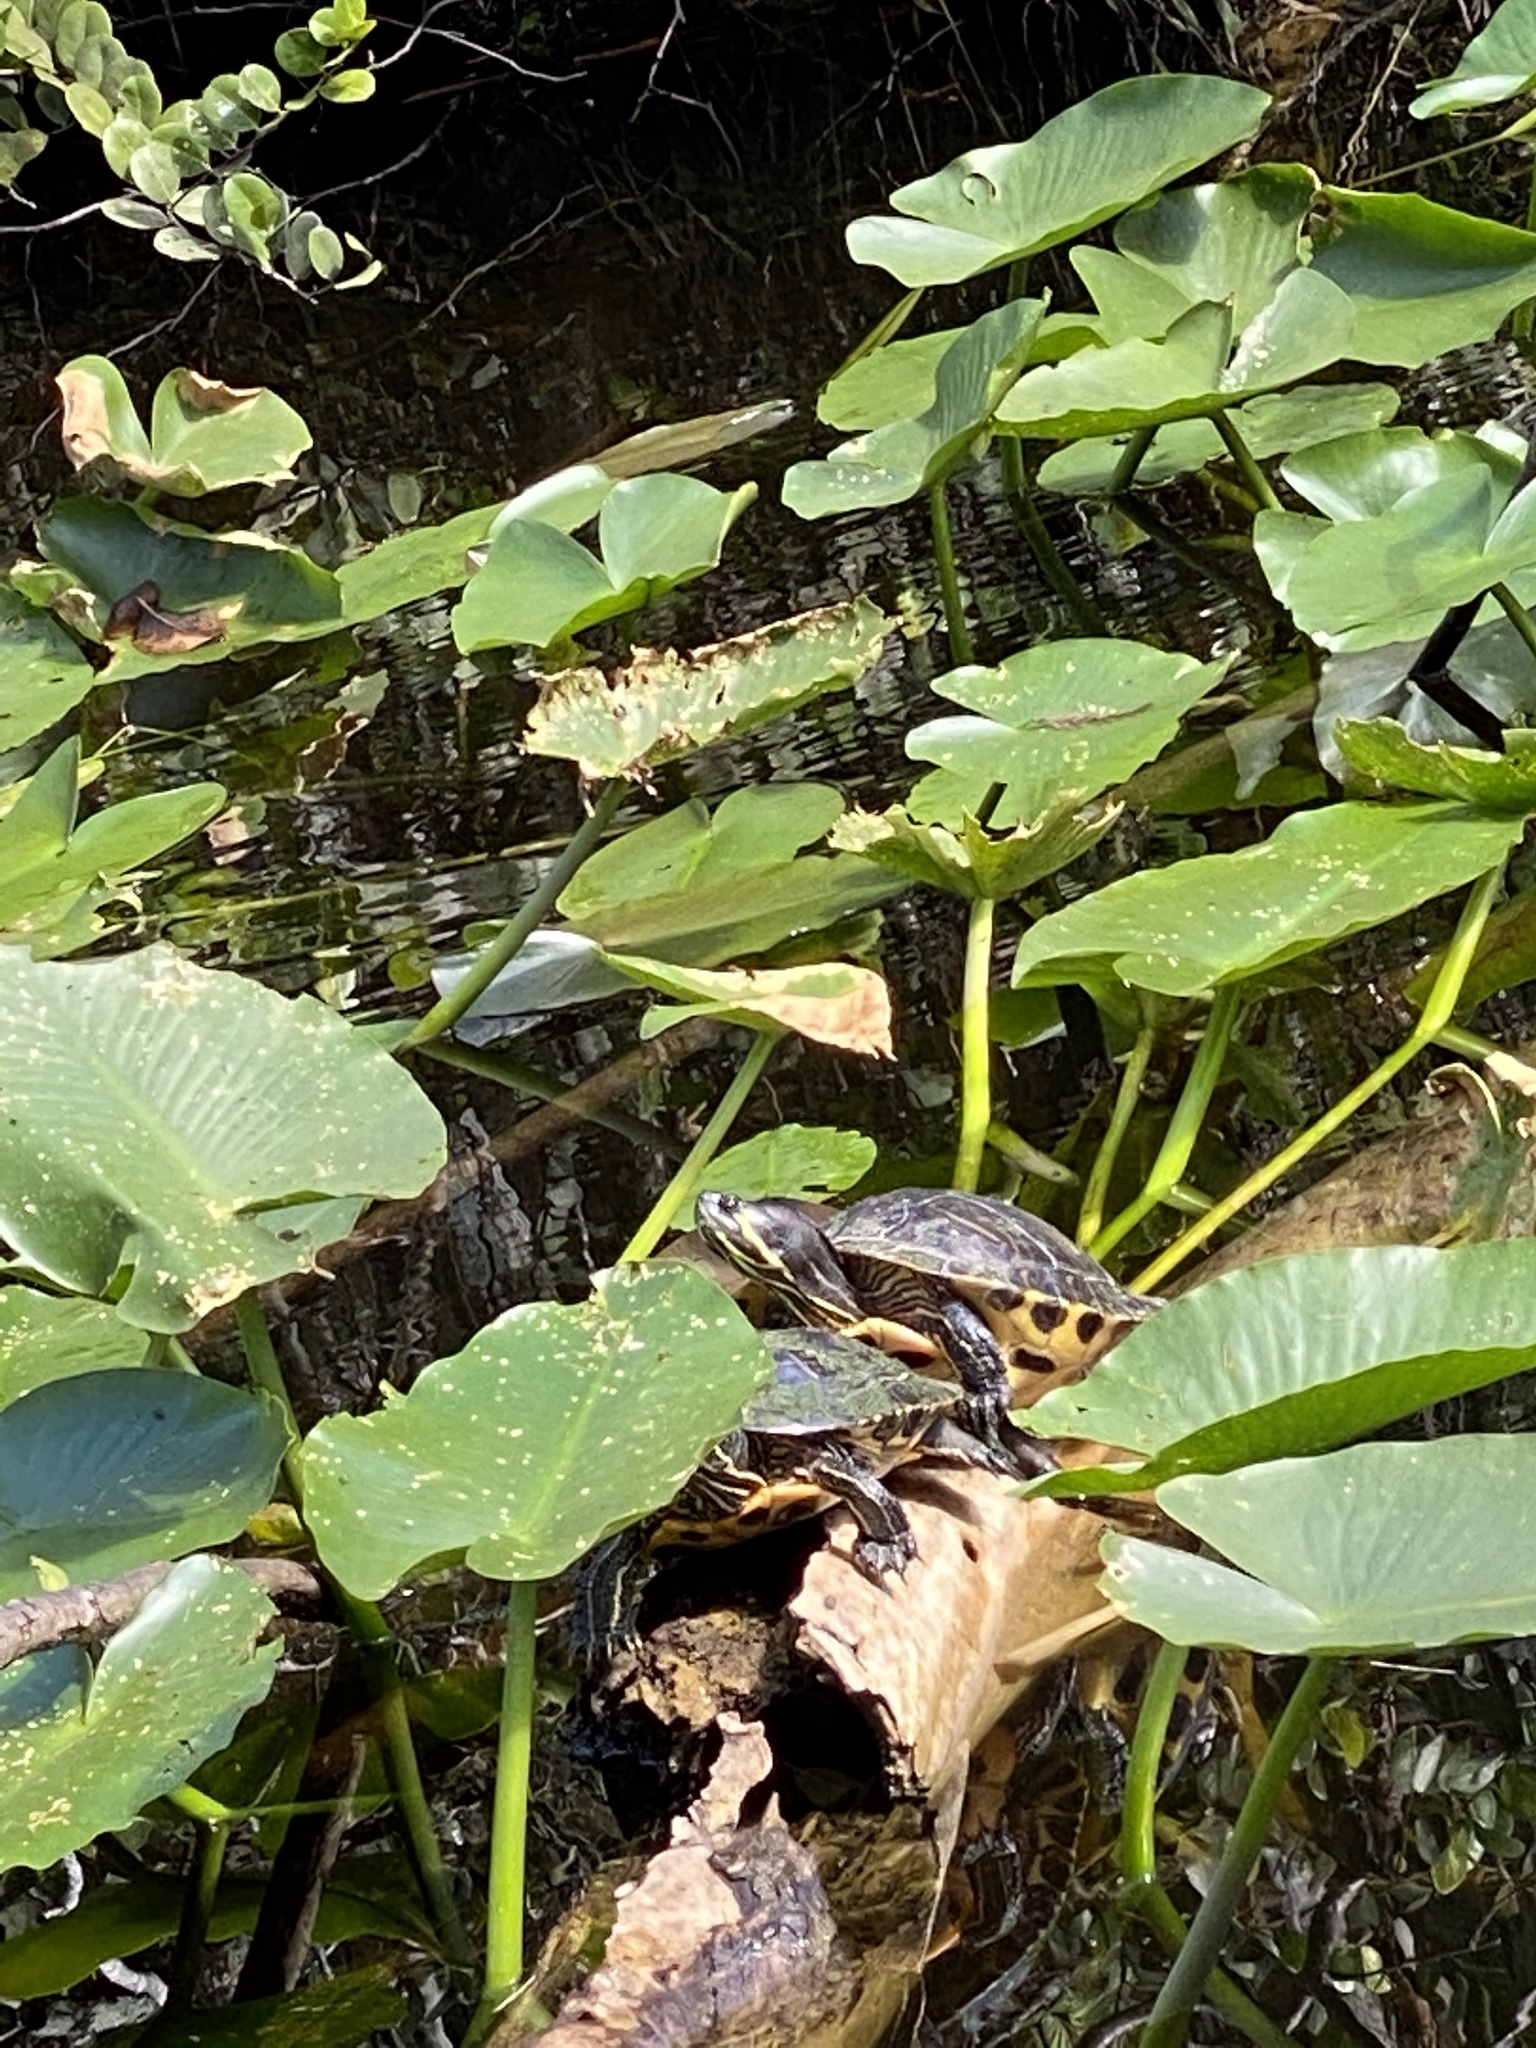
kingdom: Animalia
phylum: Chordata
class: Testudines
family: Emydidae
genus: Trachemys
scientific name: Trachemys scripta
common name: Slider
